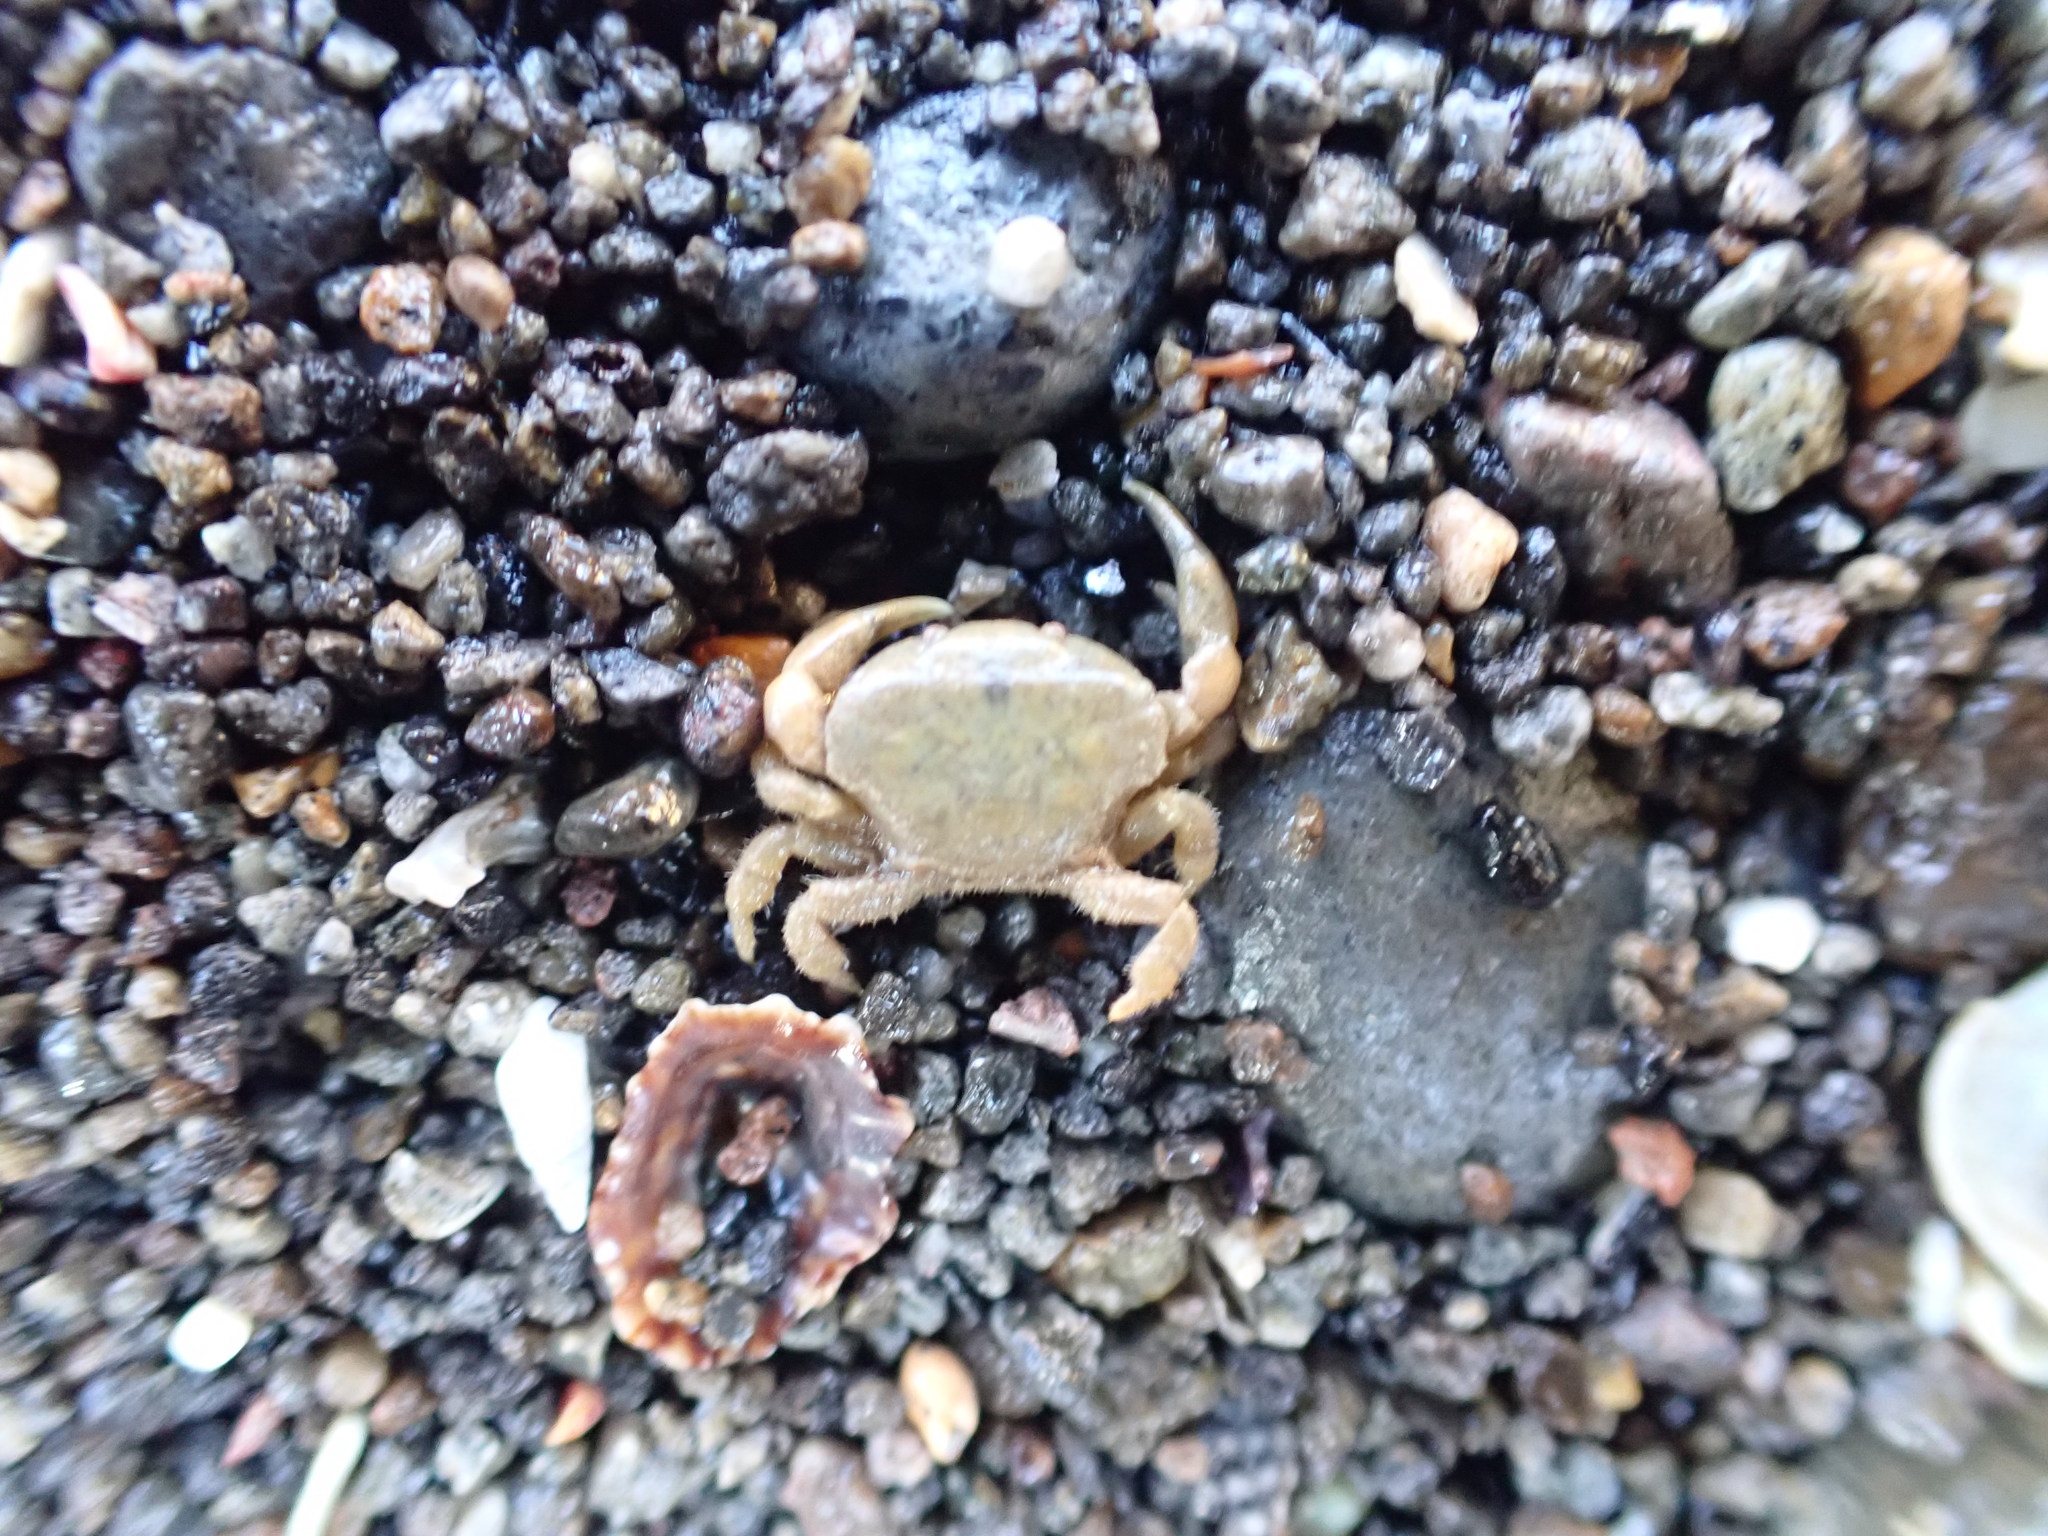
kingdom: Animalia
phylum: Arthropoda
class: Malacostraca
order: Decapoda
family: Heteroziidae
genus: Heterozius
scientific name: Heterozius rotundifrons
